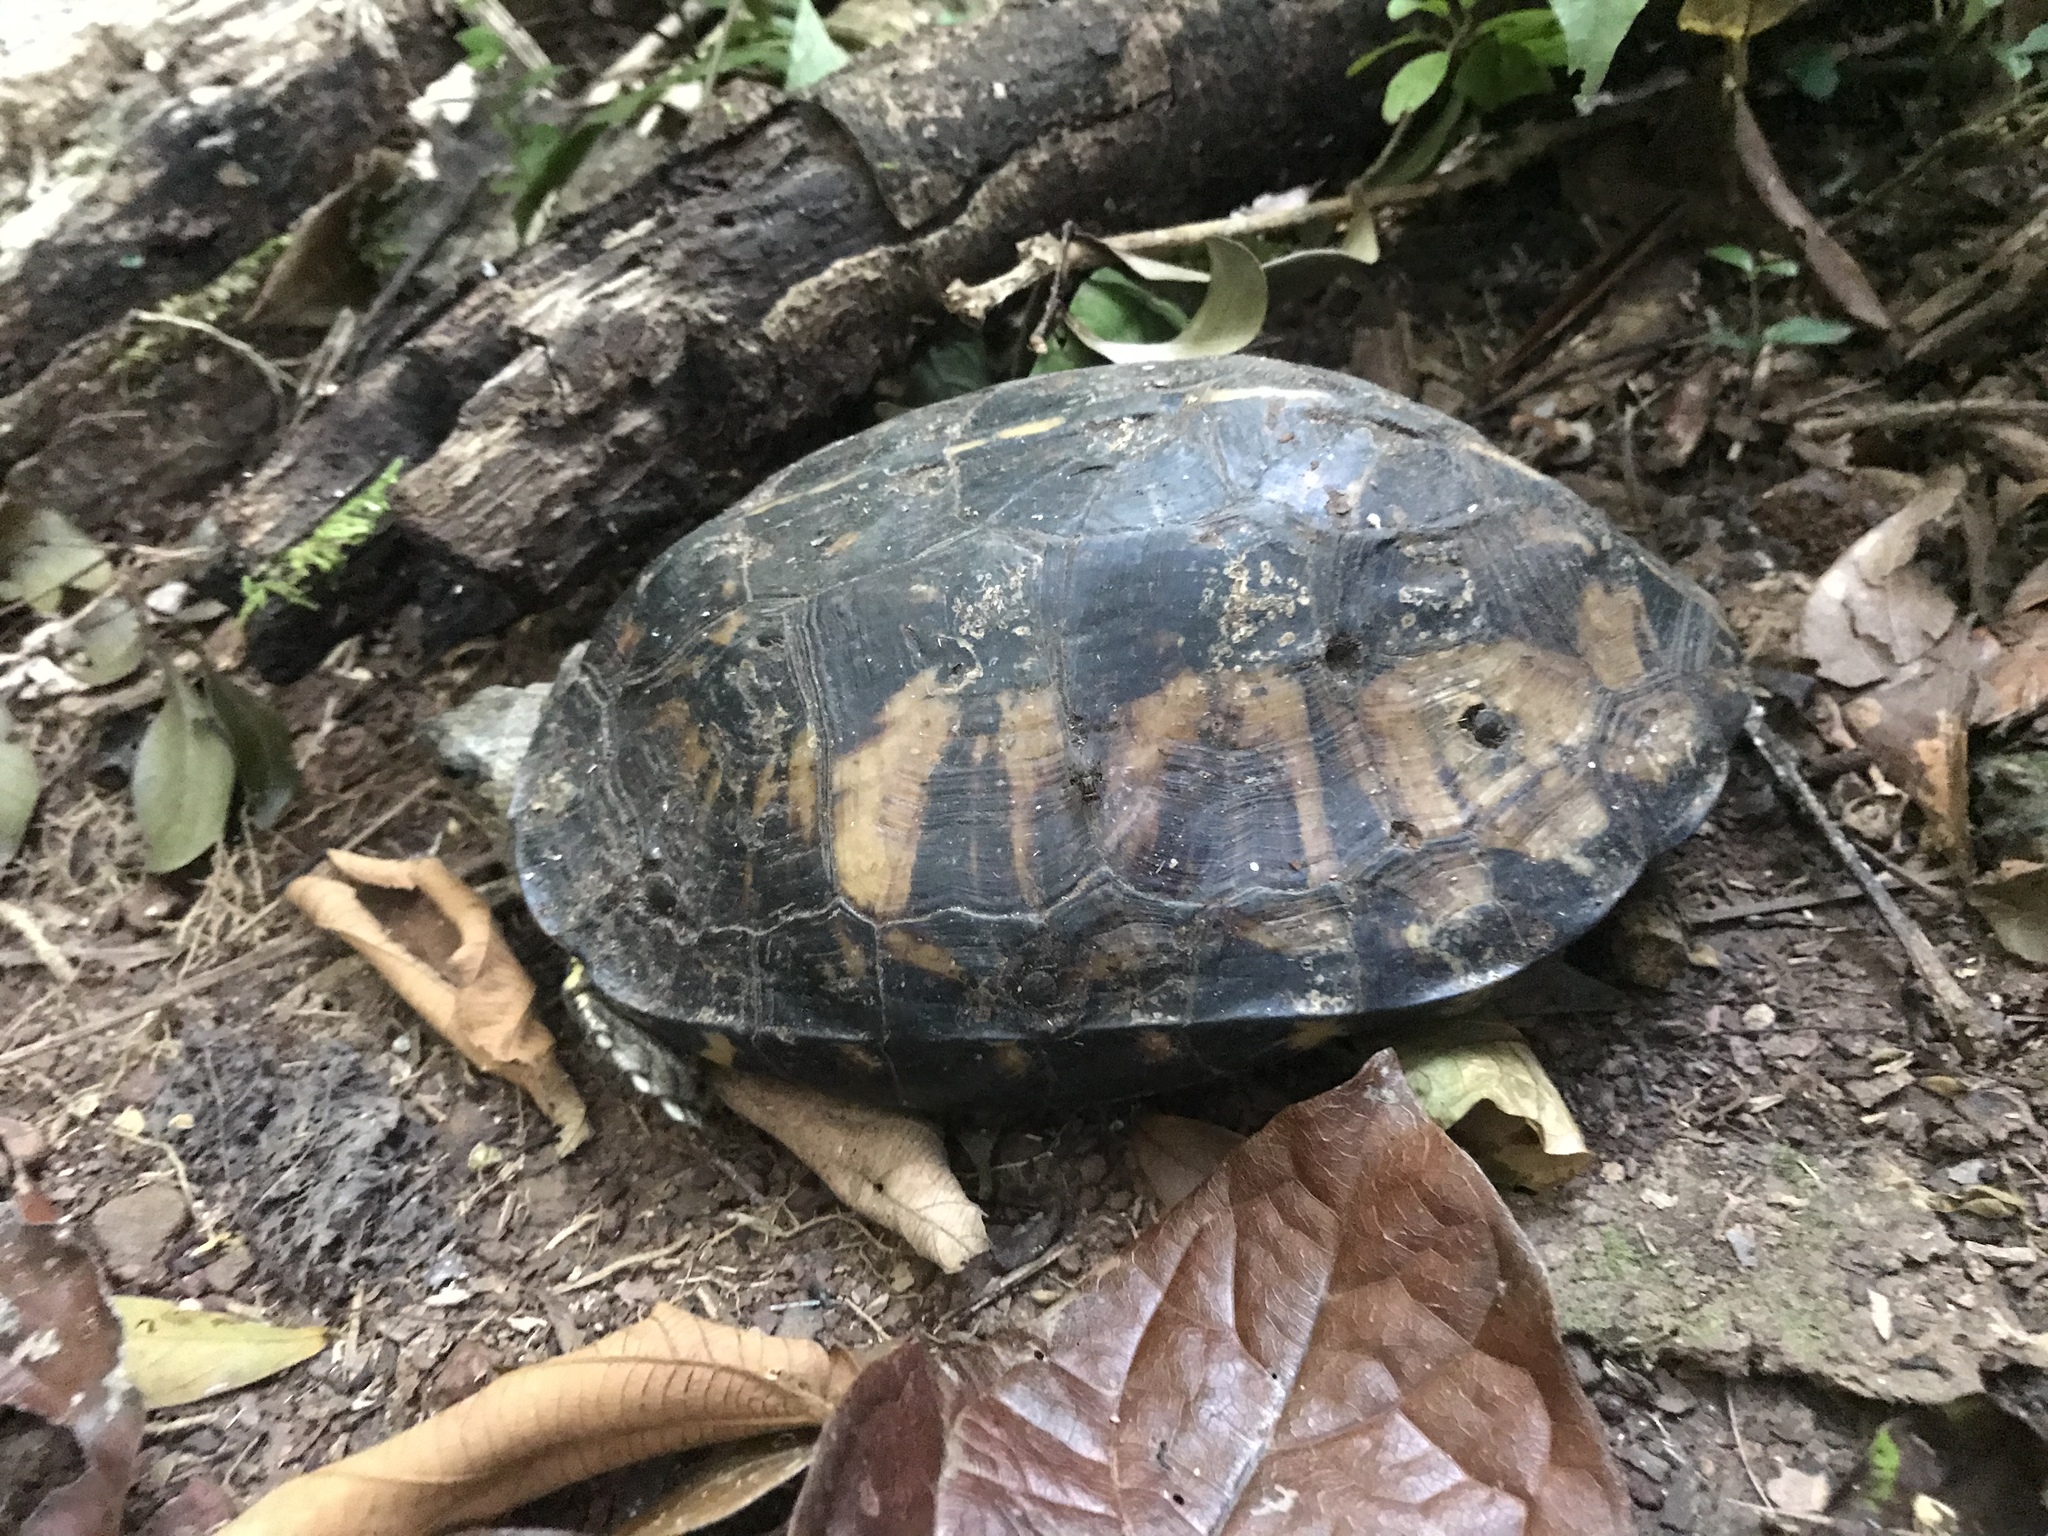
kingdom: Animalia
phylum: Chordata
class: Testudines
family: Geoemydidae
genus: Rhinoclemmys
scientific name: Rhinoclemmys annulata
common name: Brown wood turtle
